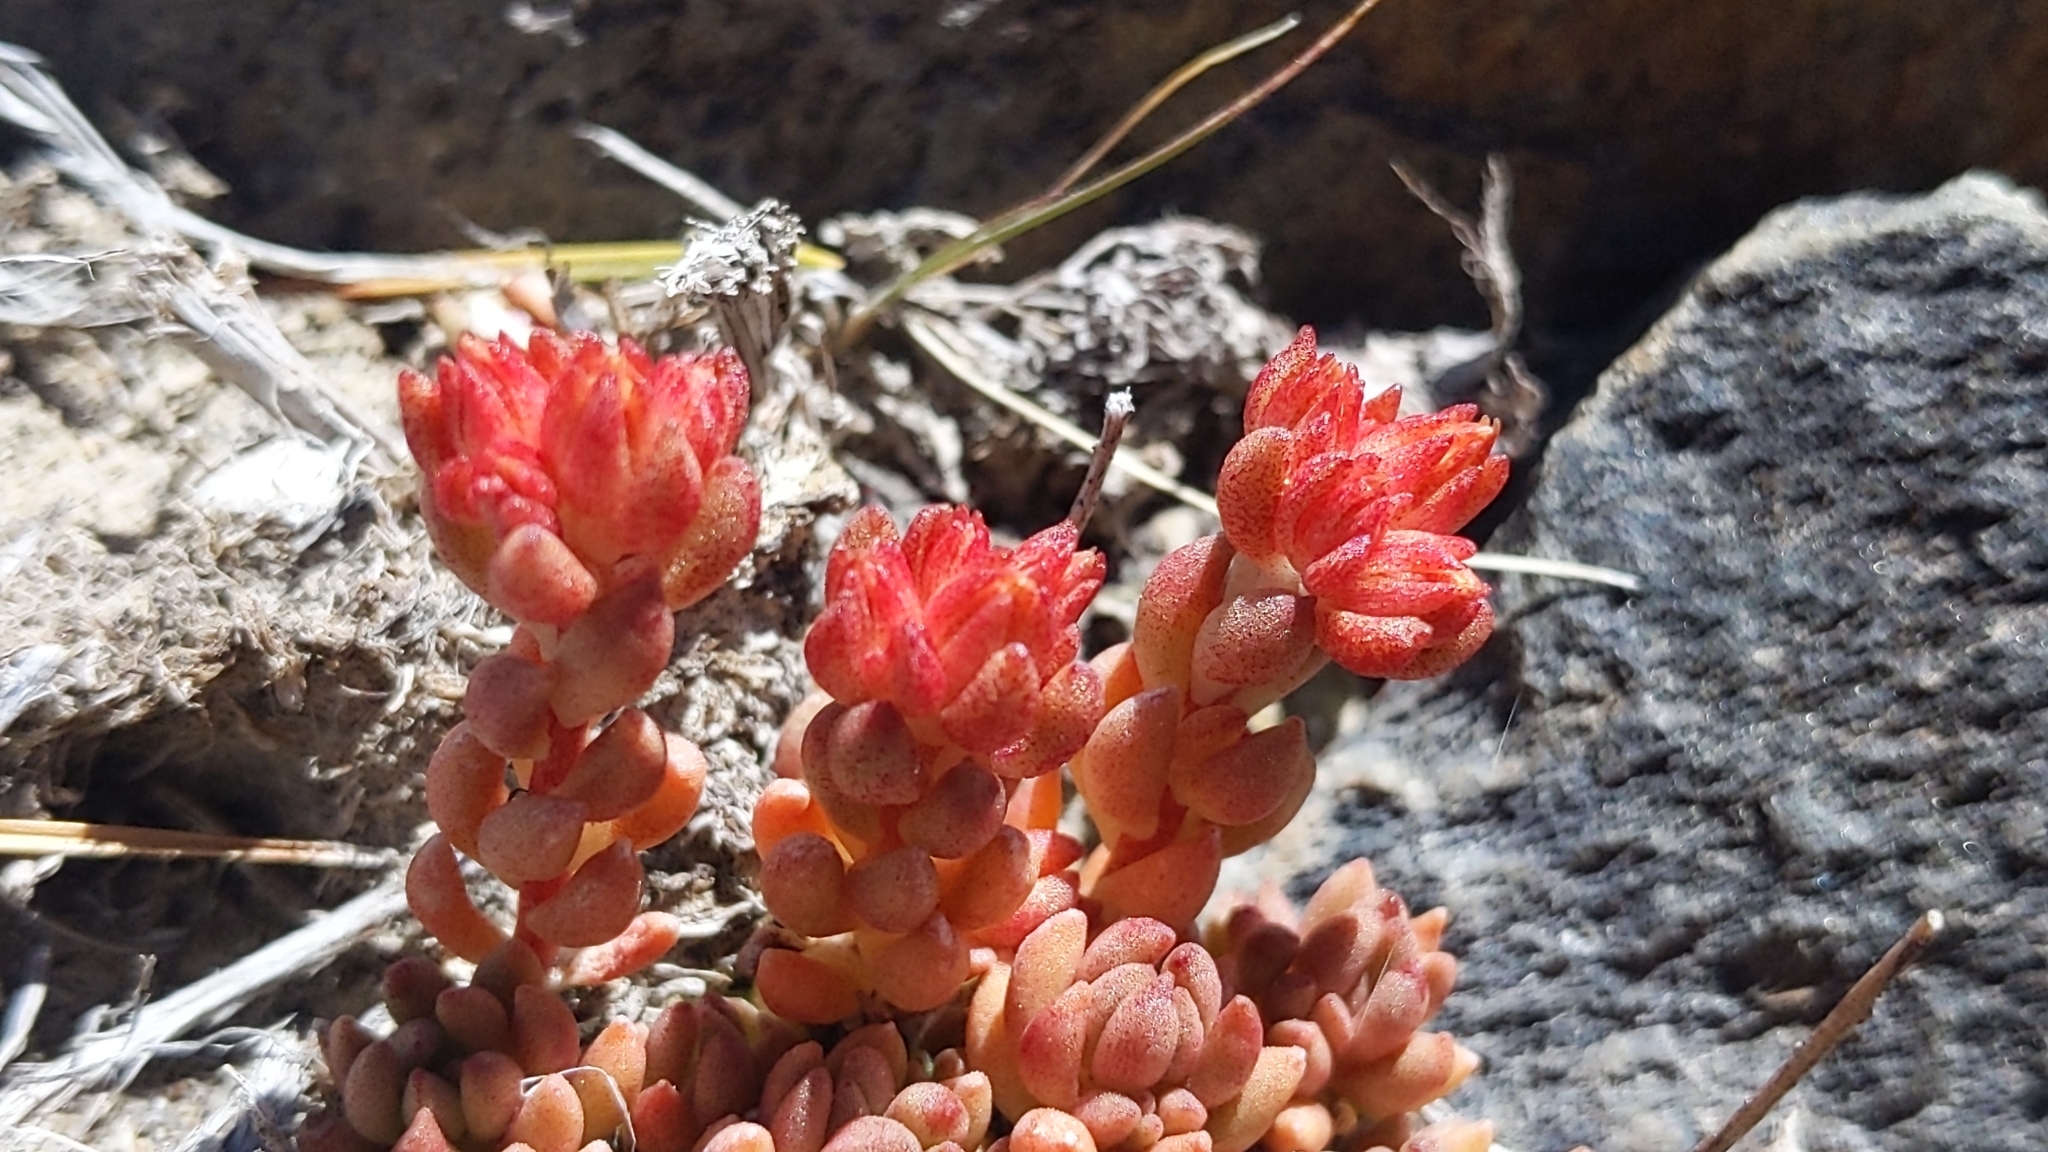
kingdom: Plantae
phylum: Tracheophyta
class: Magnoliopsida
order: Saxifragales
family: Crassulaceae
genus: Sedum
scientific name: Sedum lanceolatum
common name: Common stonecrop
